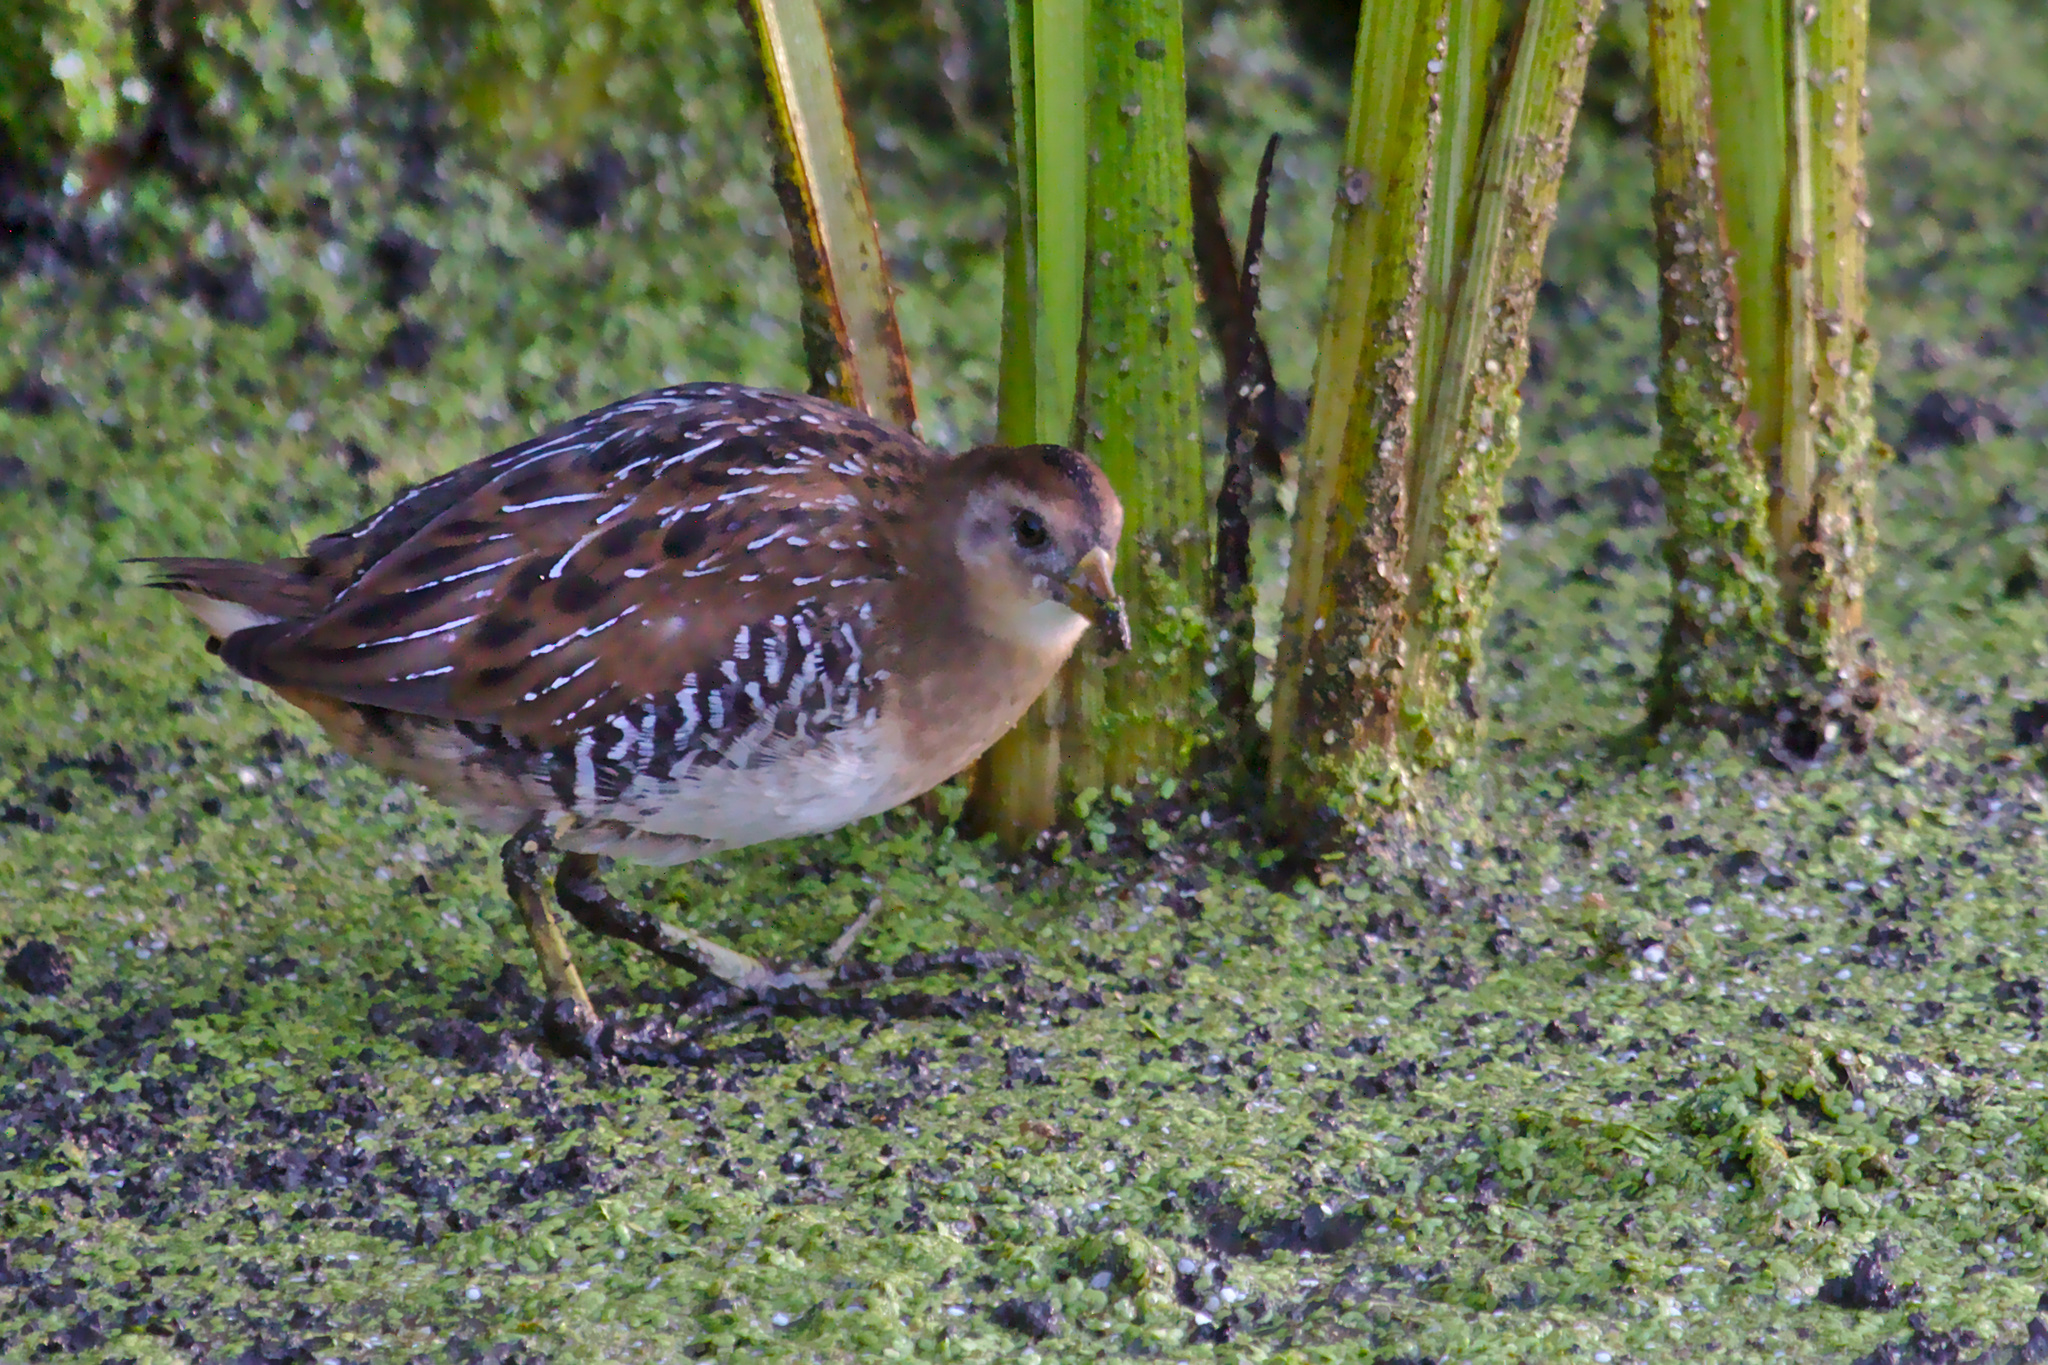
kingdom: Animalia
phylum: Chordata
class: Aves
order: Gruiformes
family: Rallidae
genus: Porzana
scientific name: Porzana carolina
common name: Sora
